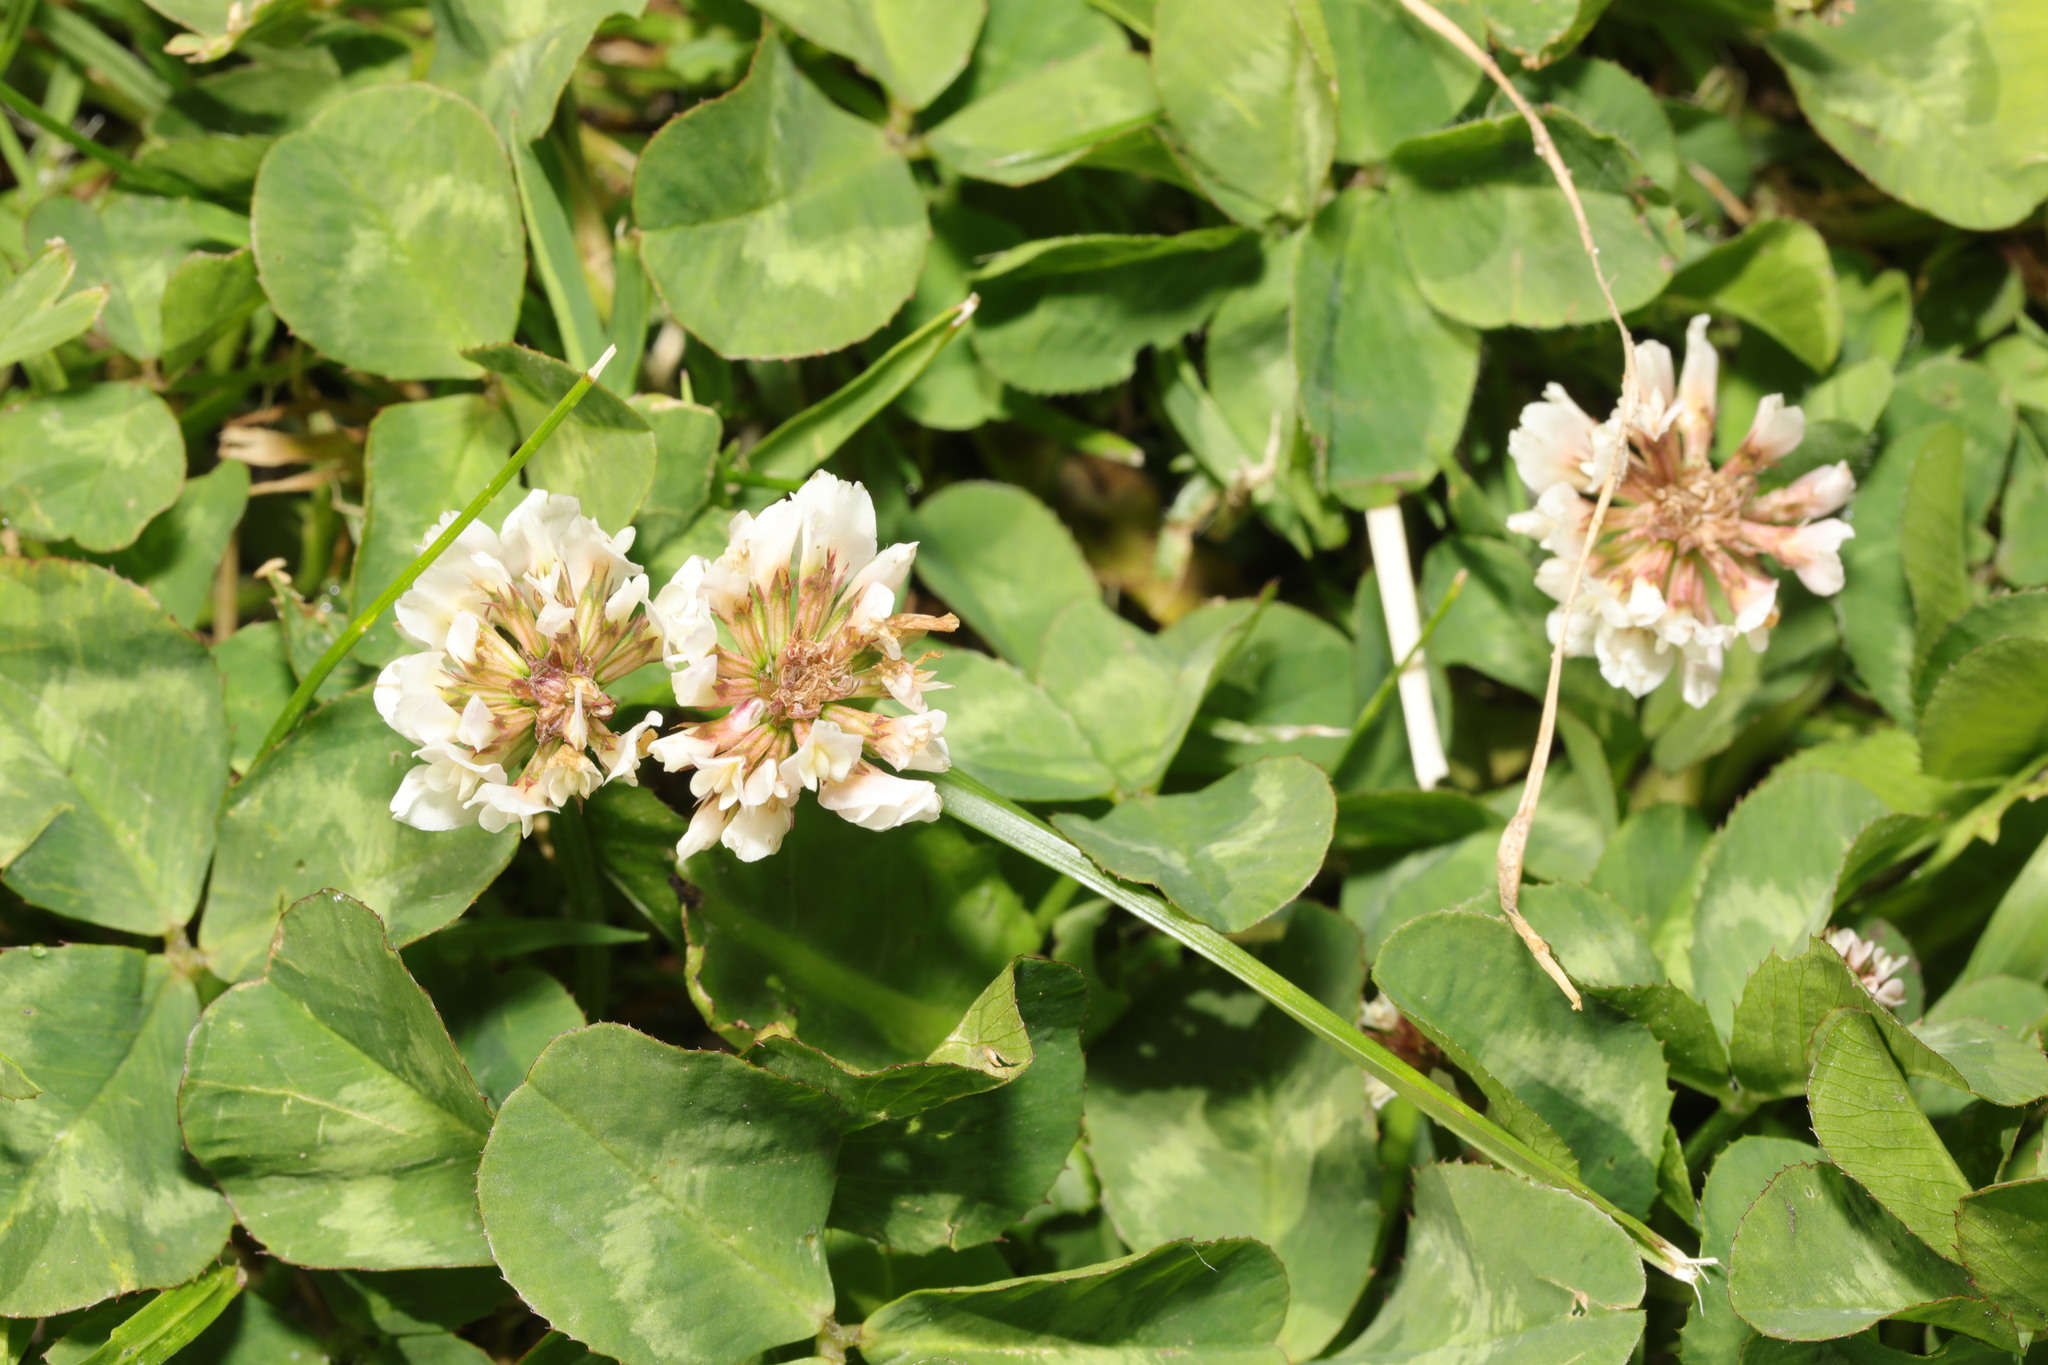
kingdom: Plantae
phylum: Tracheophyta
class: Magnoliopsida
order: Fabales
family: Fabaceae
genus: Trifolium
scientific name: Trifolium repens
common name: White clover
